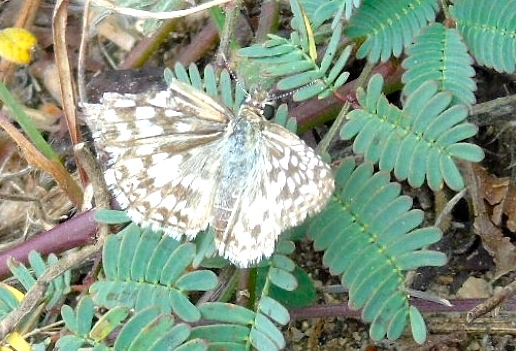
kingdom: Animalia
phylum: Arthropoda
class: Insecta
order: Lepidoptera
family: Hesperiidae
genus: Burnsius
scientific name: Burnsius
